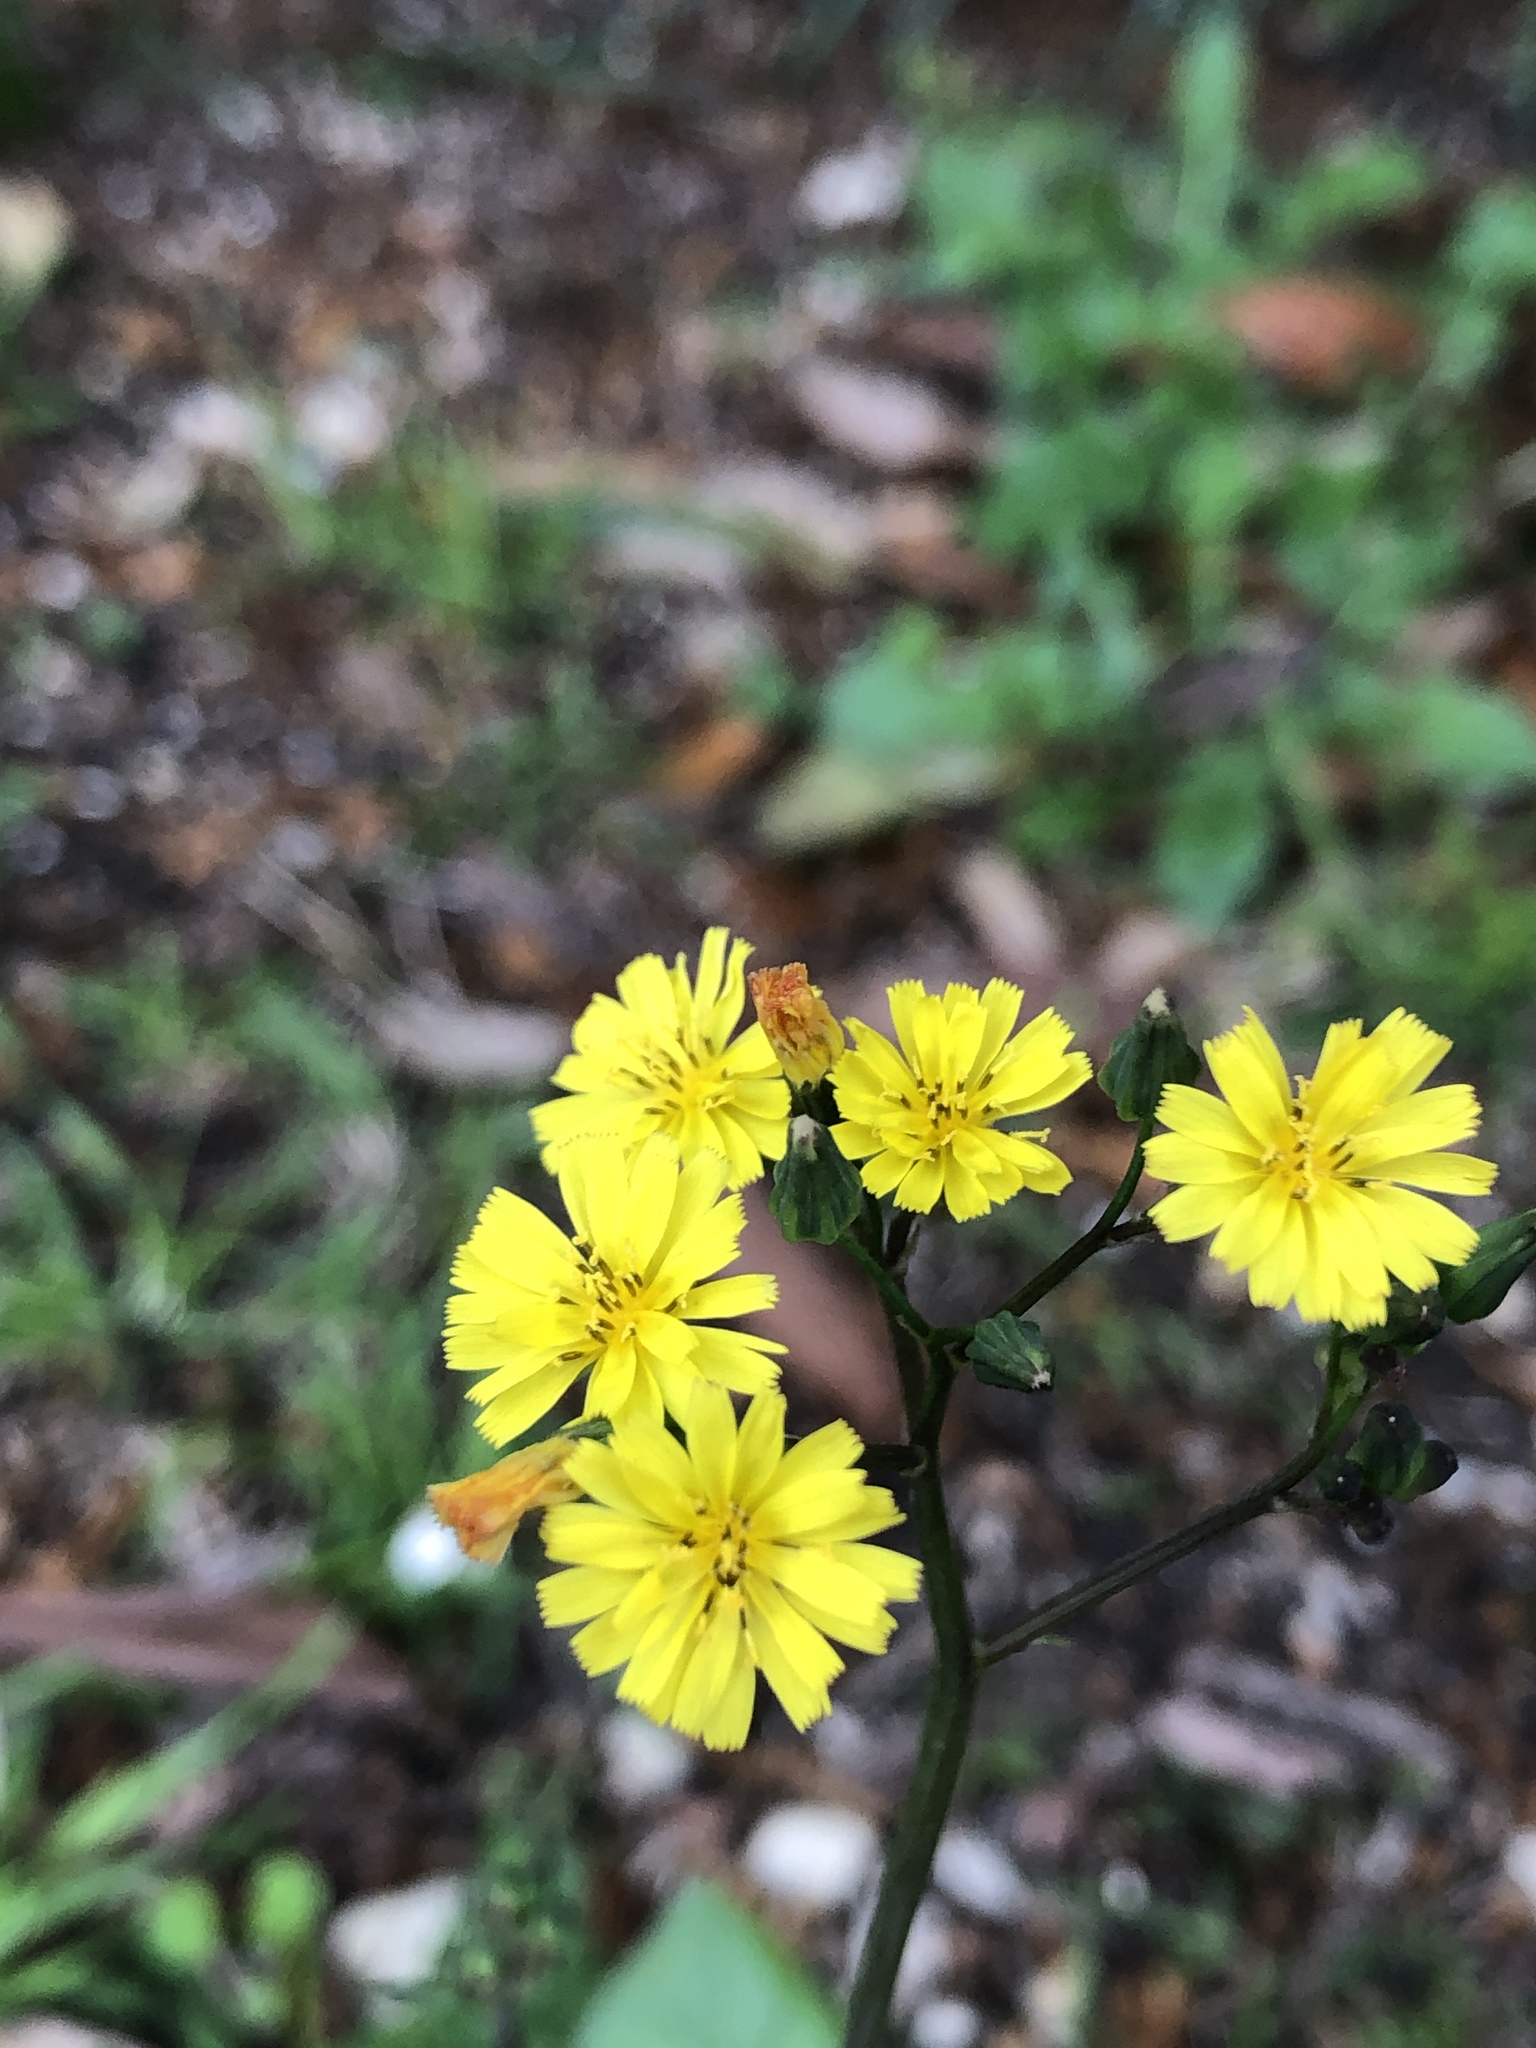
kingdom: Plantae
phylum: Tracheophyta
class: Magnoliopsida
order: Asterales
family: Asteraceae
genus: Youngia
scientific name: Youngia japonica
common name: Oriental false hawksbeard
